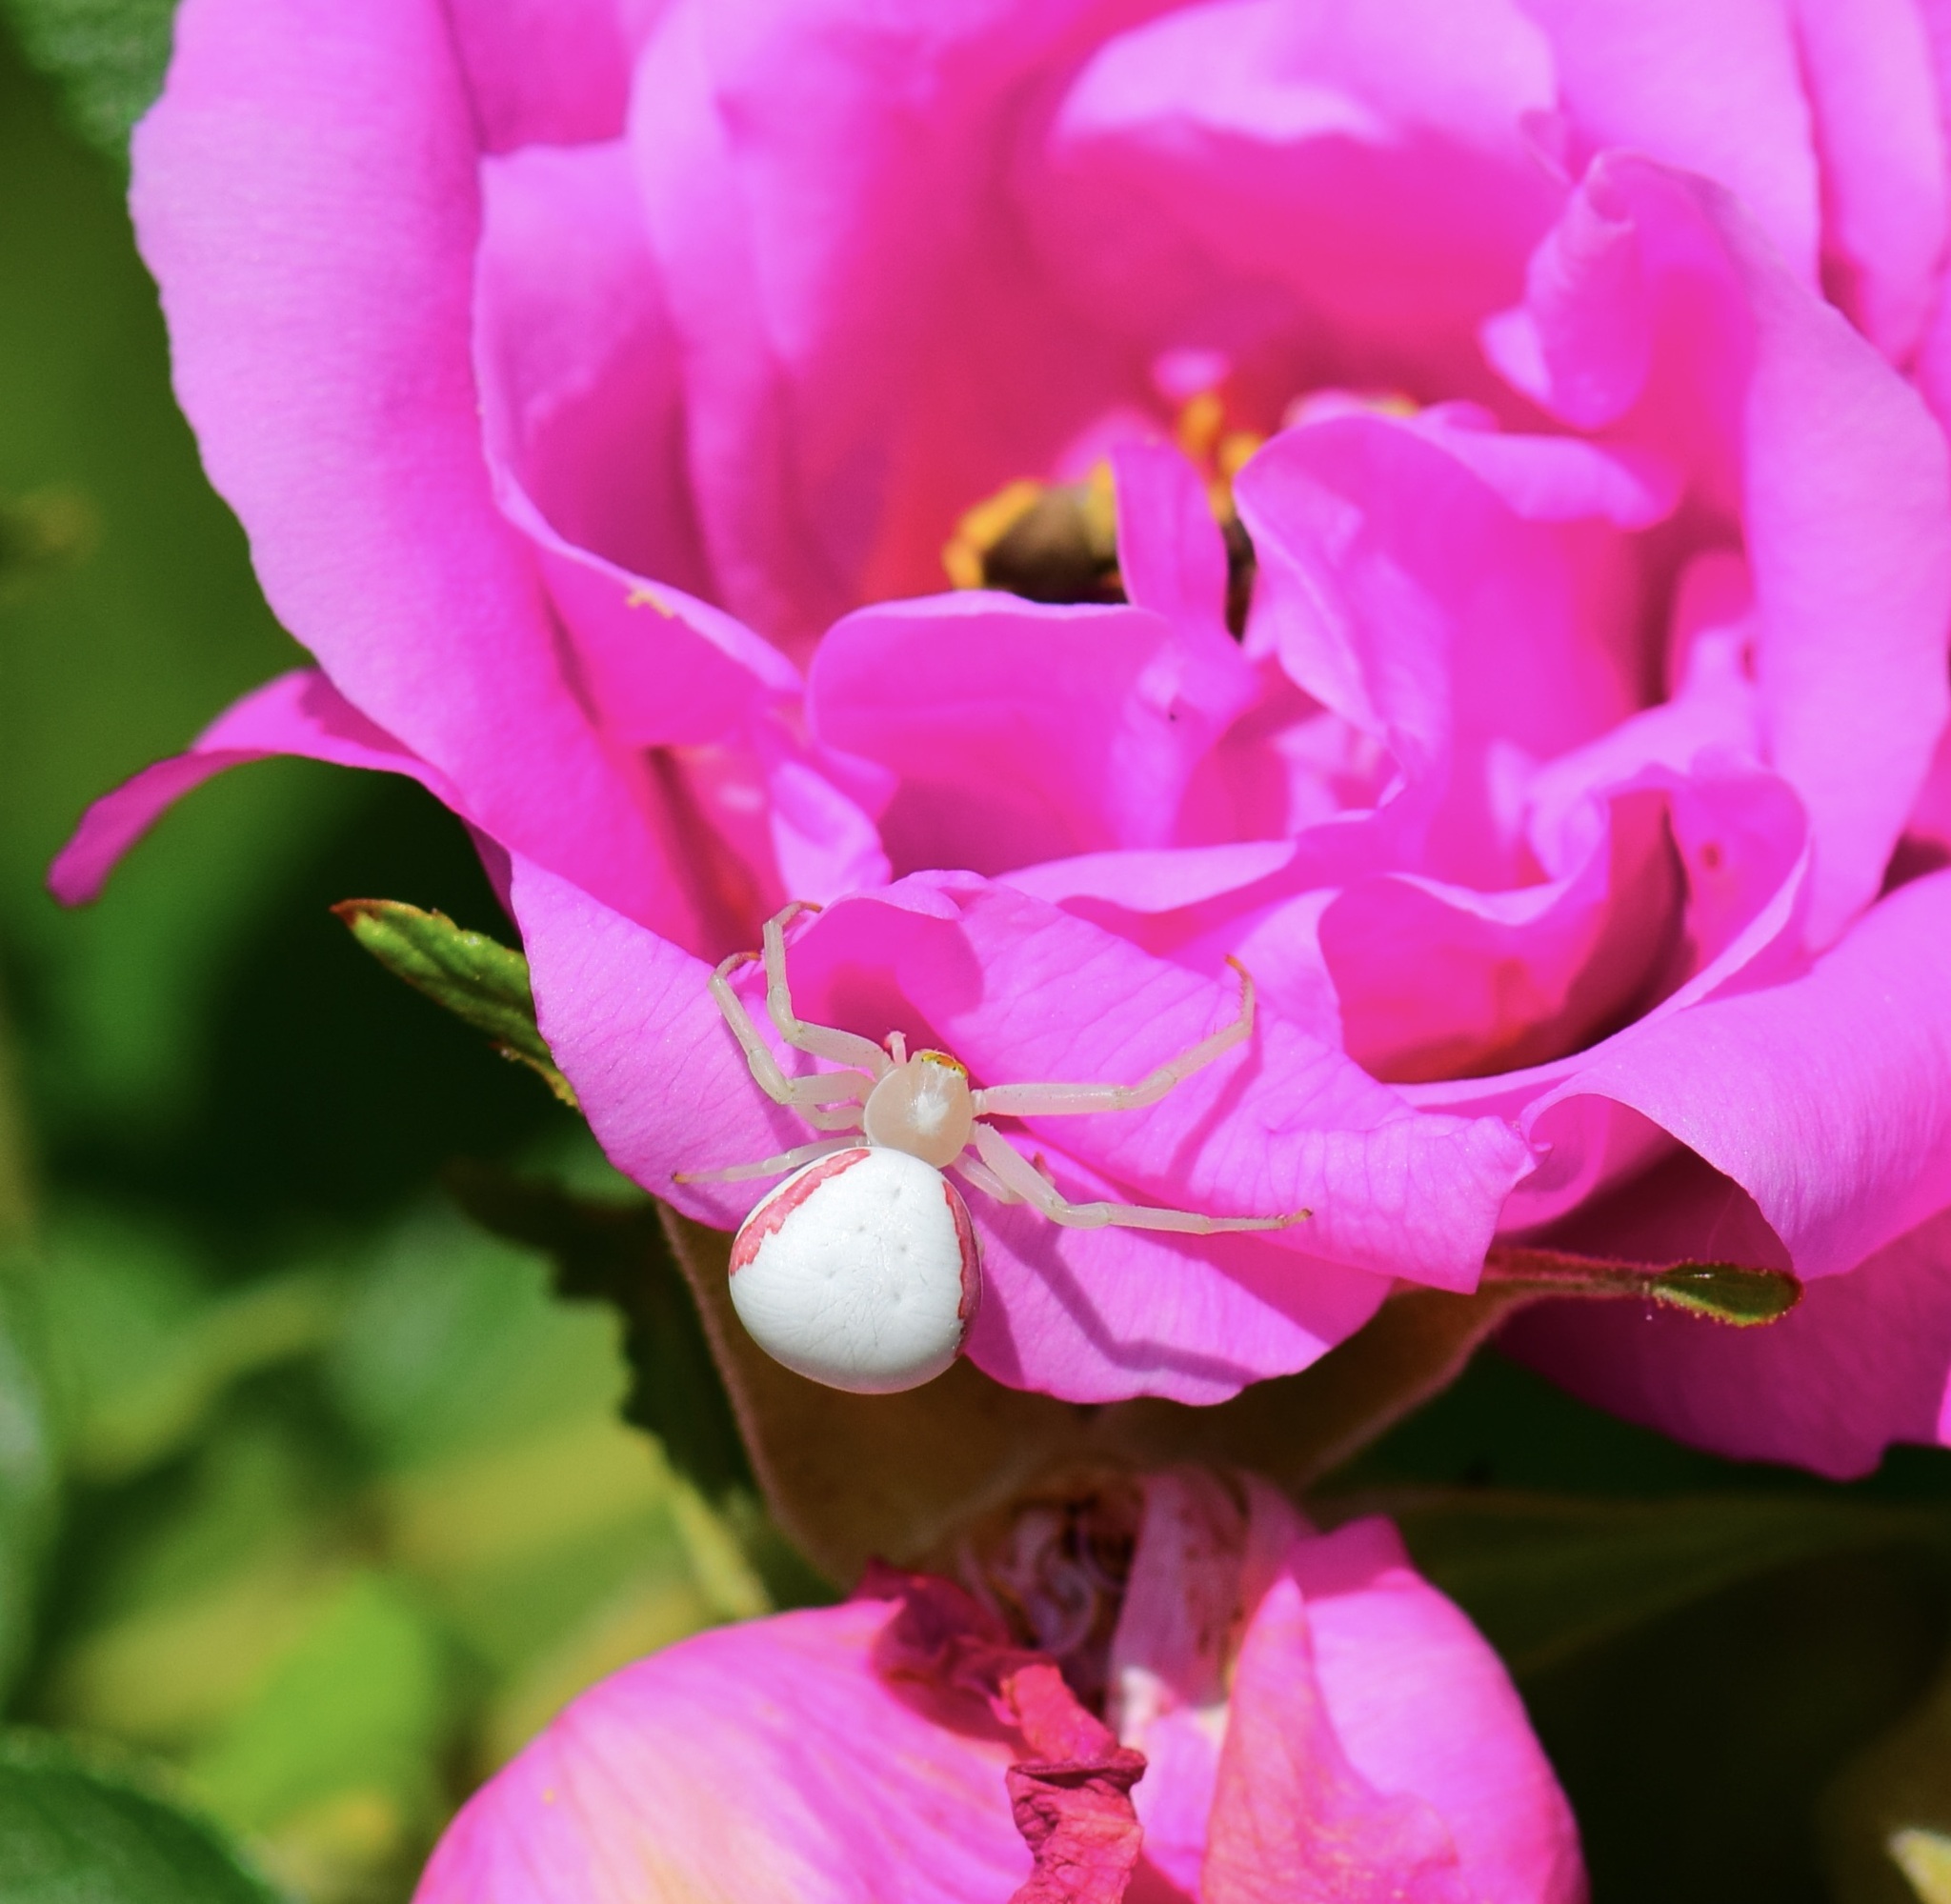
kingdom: Animalia
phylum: Arthropoda
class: Arachnida
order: Araneae
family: Thomisidae
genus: Misumena
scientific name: Misumena vatia
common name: Goldenrod crab spider
